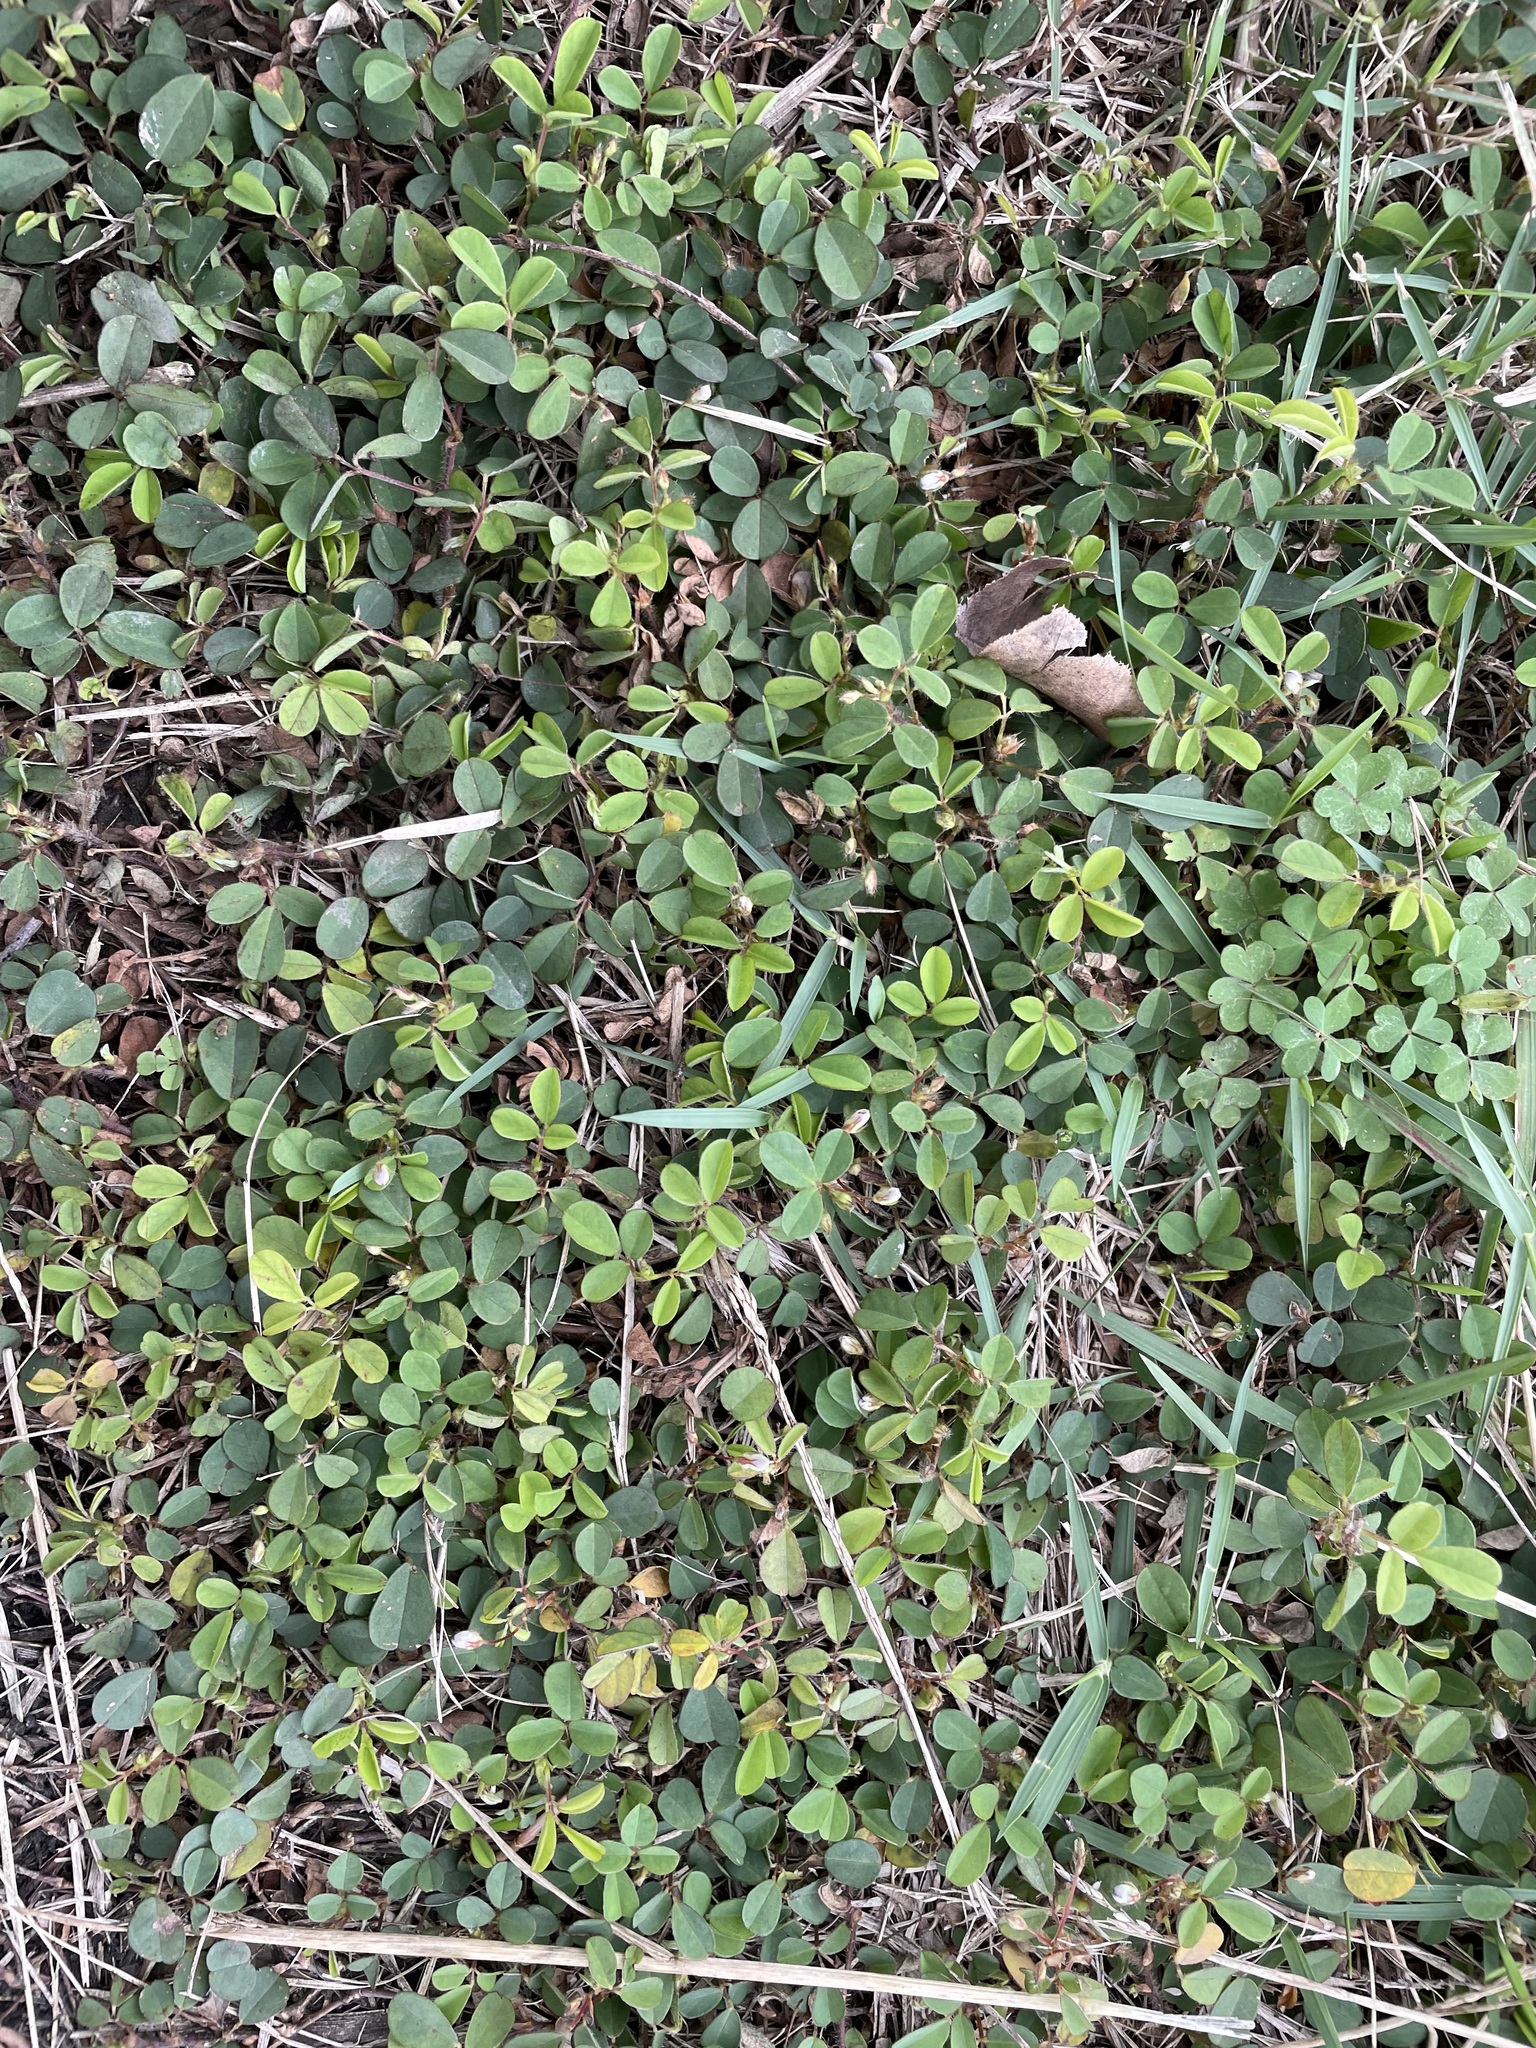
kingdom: Plantae
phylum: Tracheophyta
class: Magnoliopsida
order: Fabales
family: Fabaceae
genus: Grona
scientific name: Grona heterophylla
